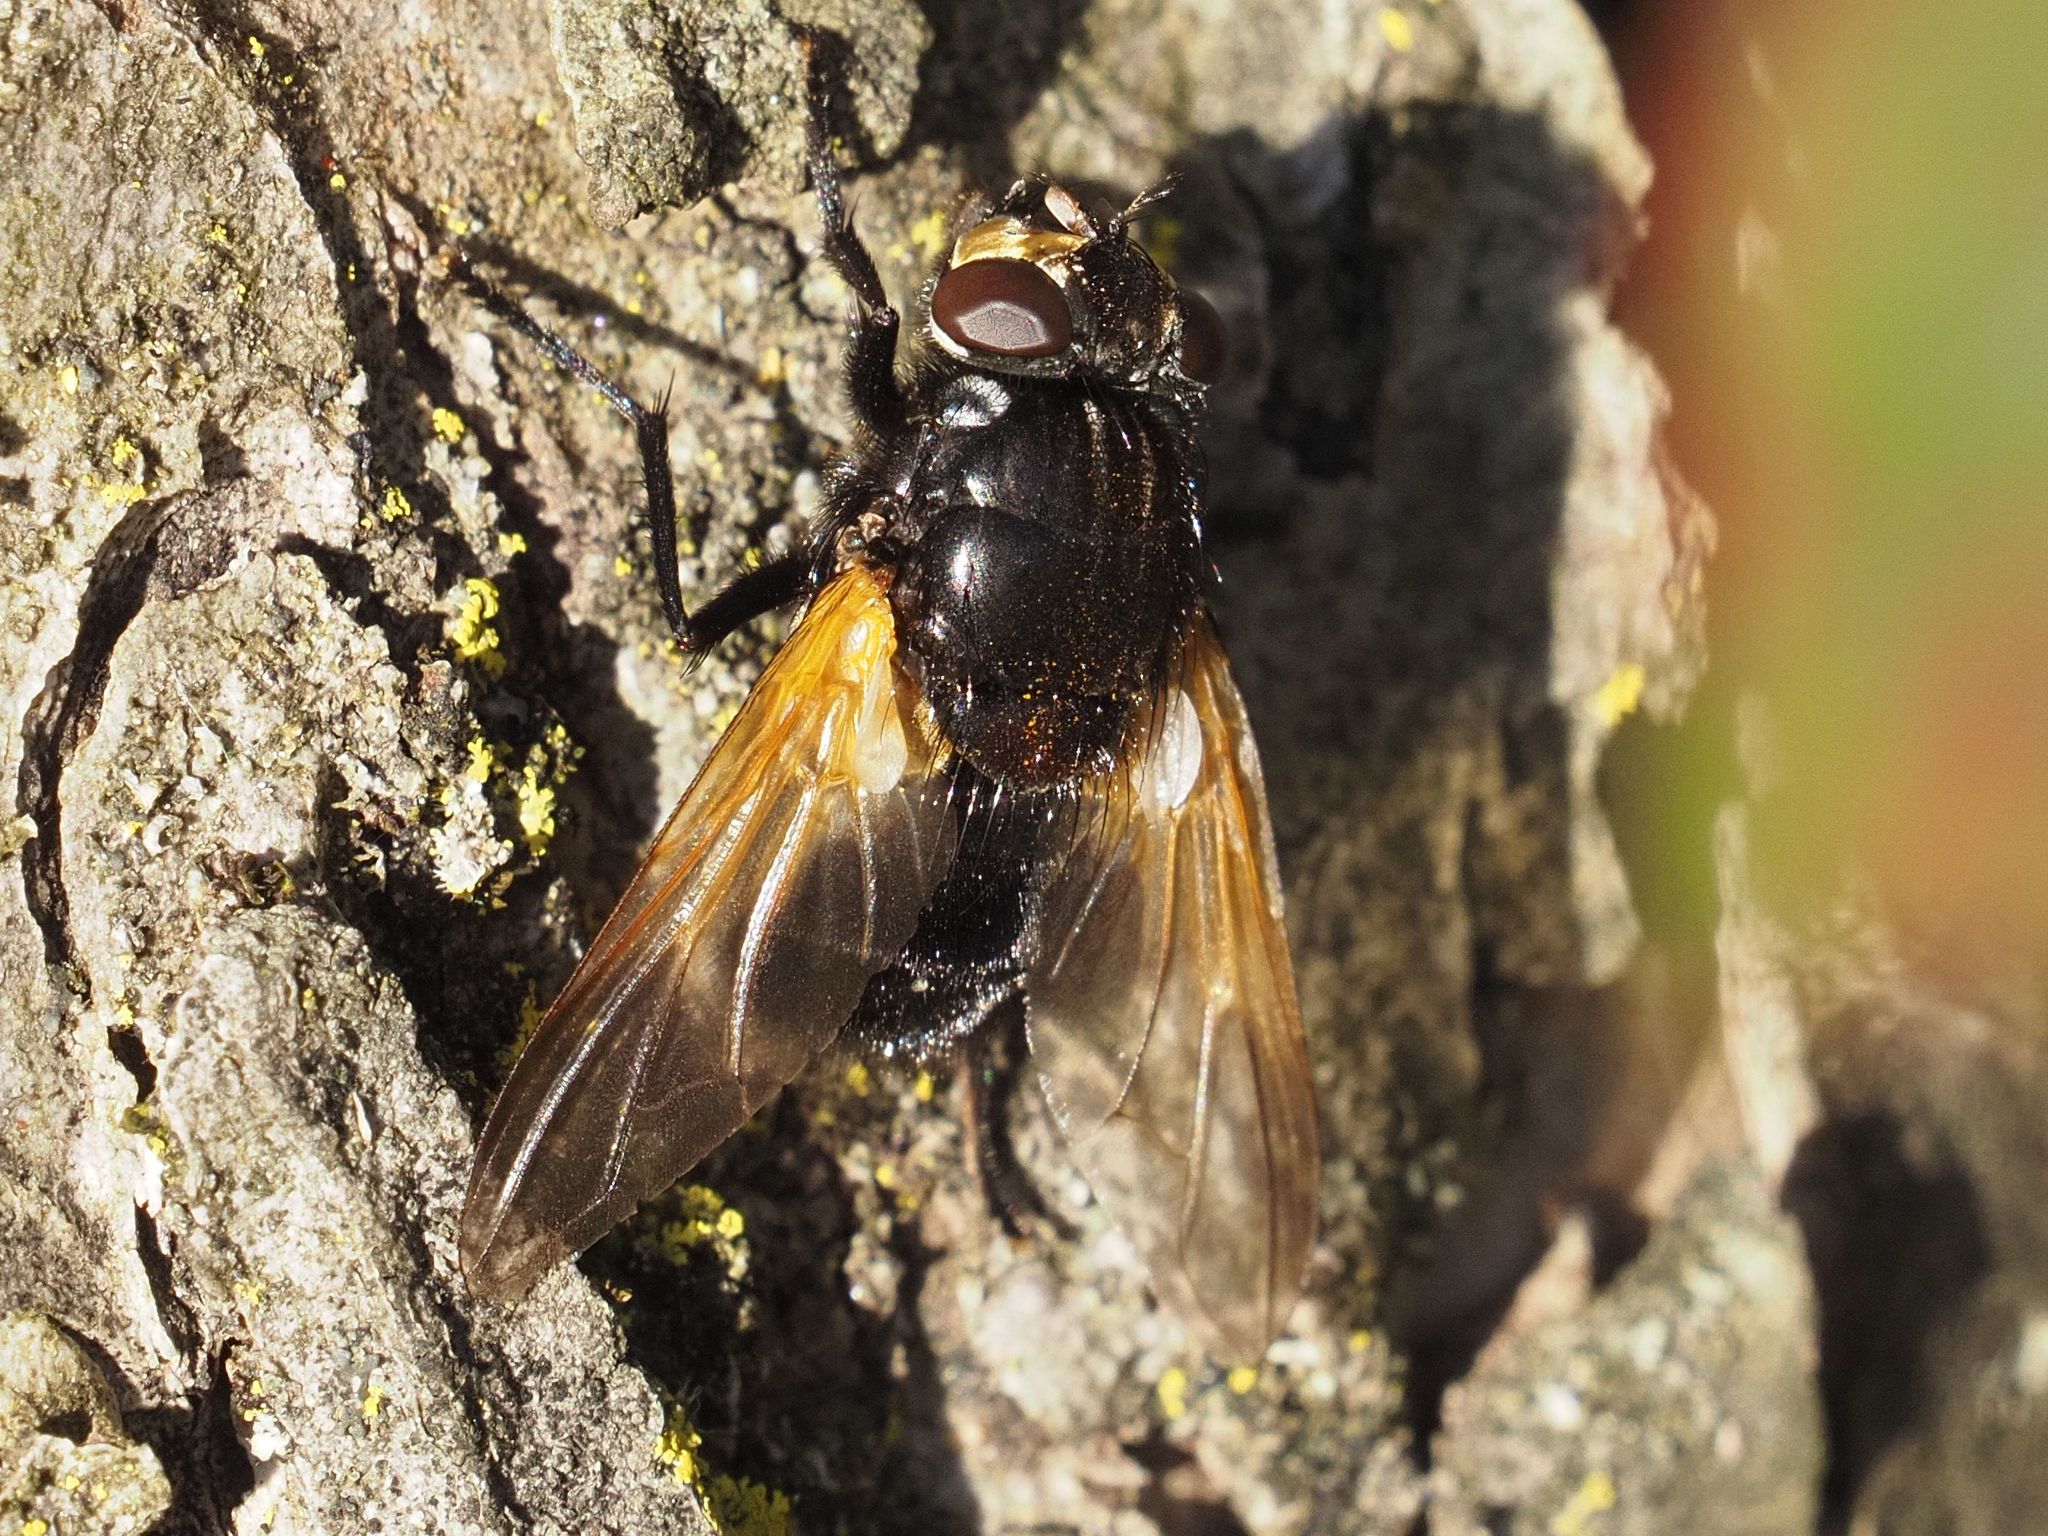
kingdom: Animalia
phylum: Arthropoda
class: Insecta
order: Diptera
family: Muscidae
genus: Mesembrina
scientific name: Mesembrina meridiana
